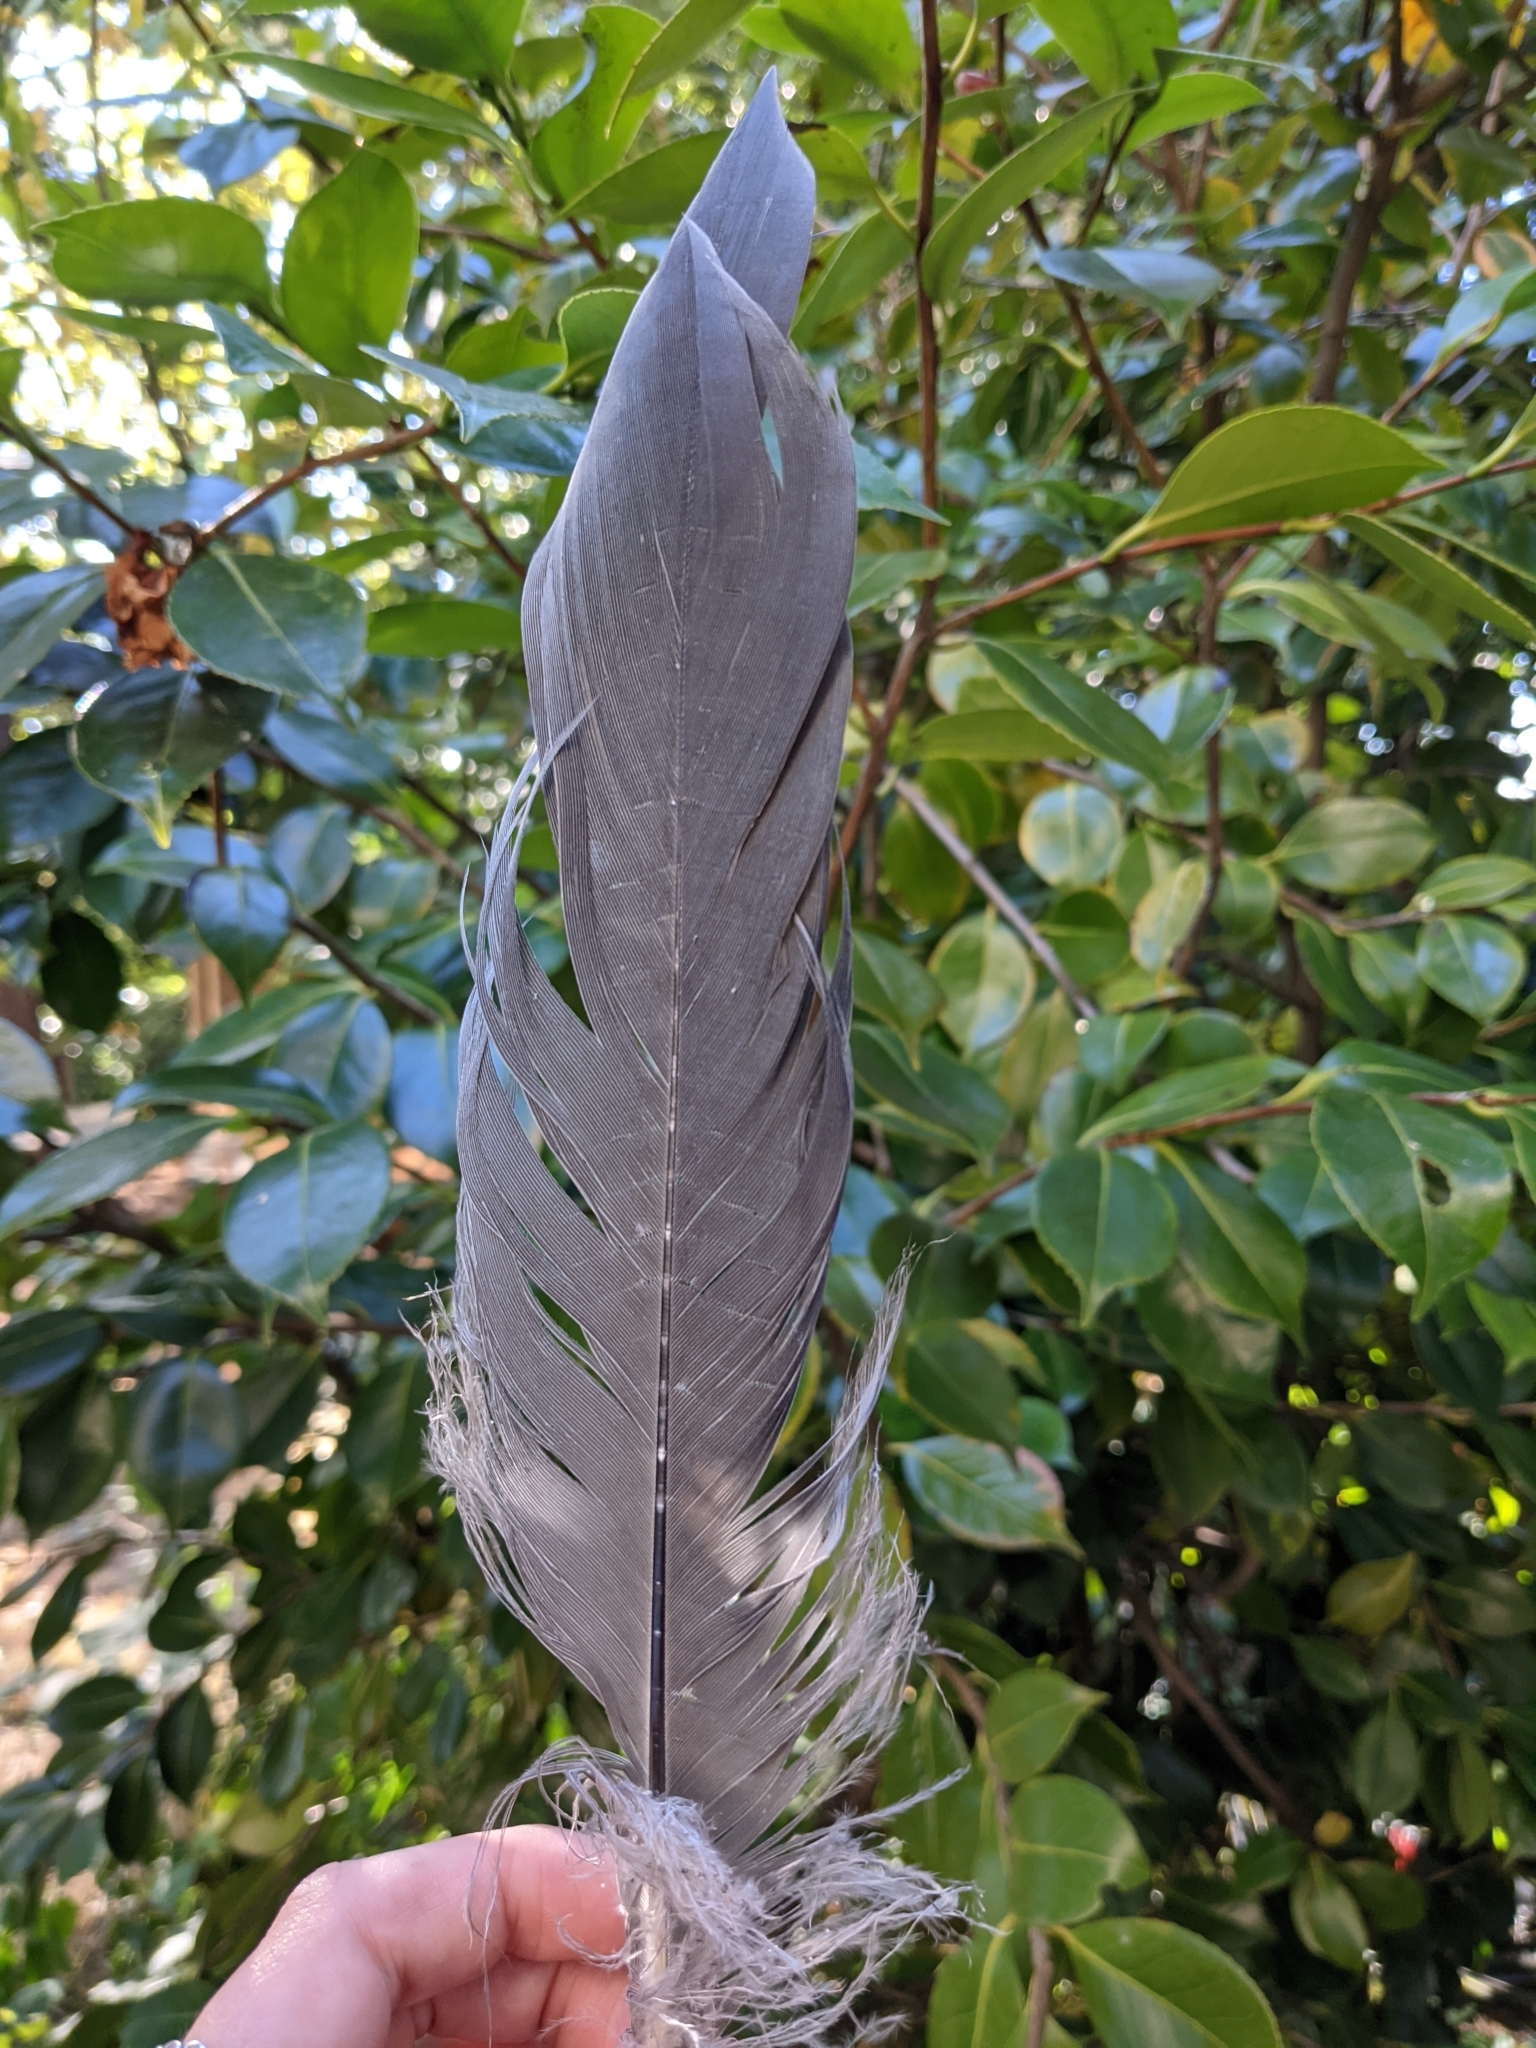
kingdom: Animalia
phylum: Chordata
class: Aves
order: Pelecaniformes
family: Ardeidae
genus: Ardea
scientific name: Ardea herodias
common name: Great blue heron
